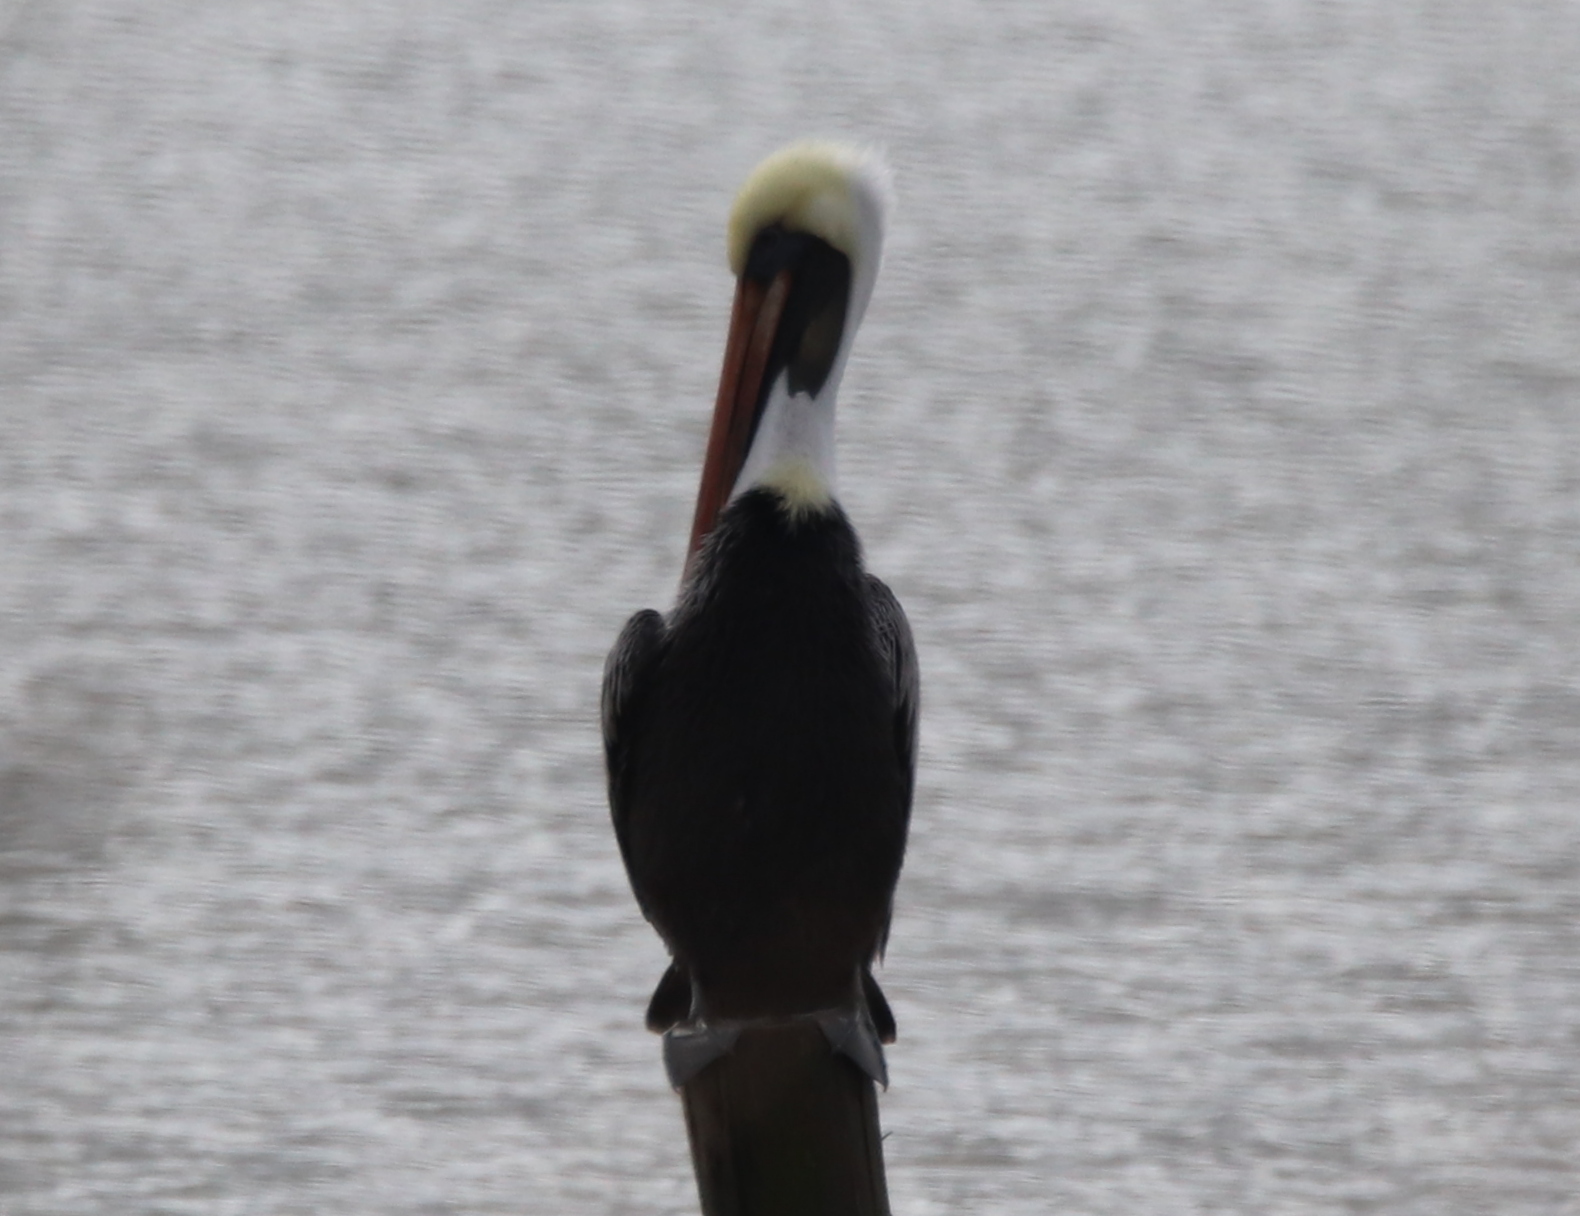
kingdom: Animalia
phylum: Chordata
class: Aves
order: Pelecaniformes
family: Pelecanidae
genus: Pelecanus
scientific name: Pelecanus occidentalis
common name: Brown pelican
